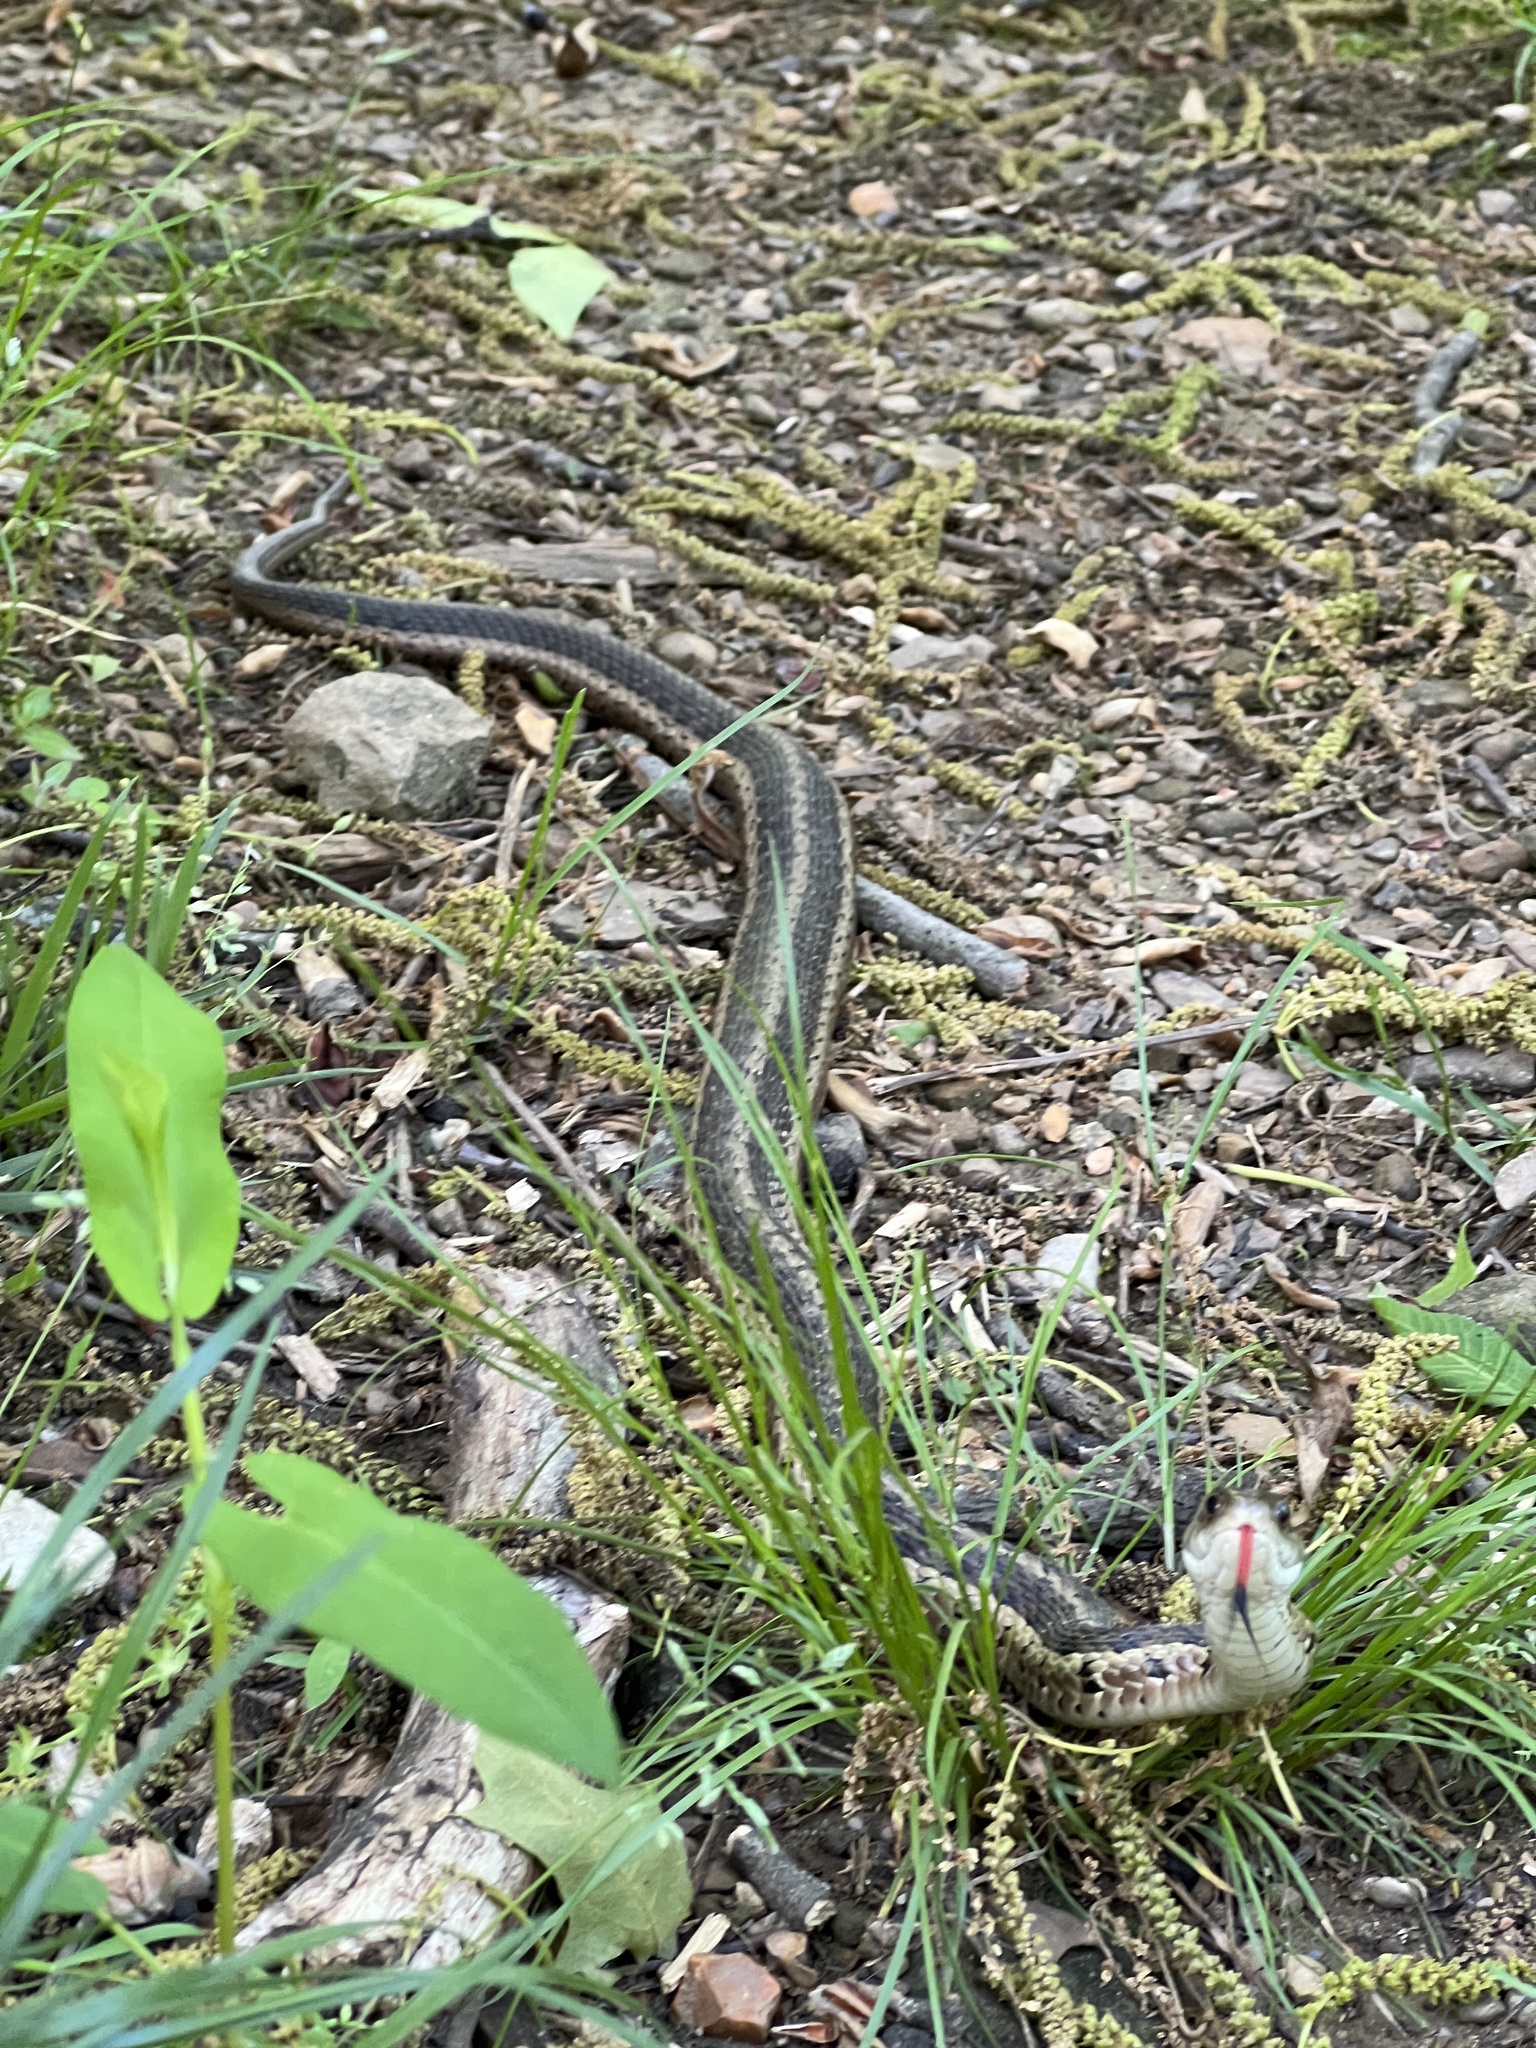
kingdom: Animalia
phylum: Chordata
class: Squamata
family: Colubridae
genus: Thamnophis
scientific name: Thamnophis sirtalis
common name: Common garter snake
